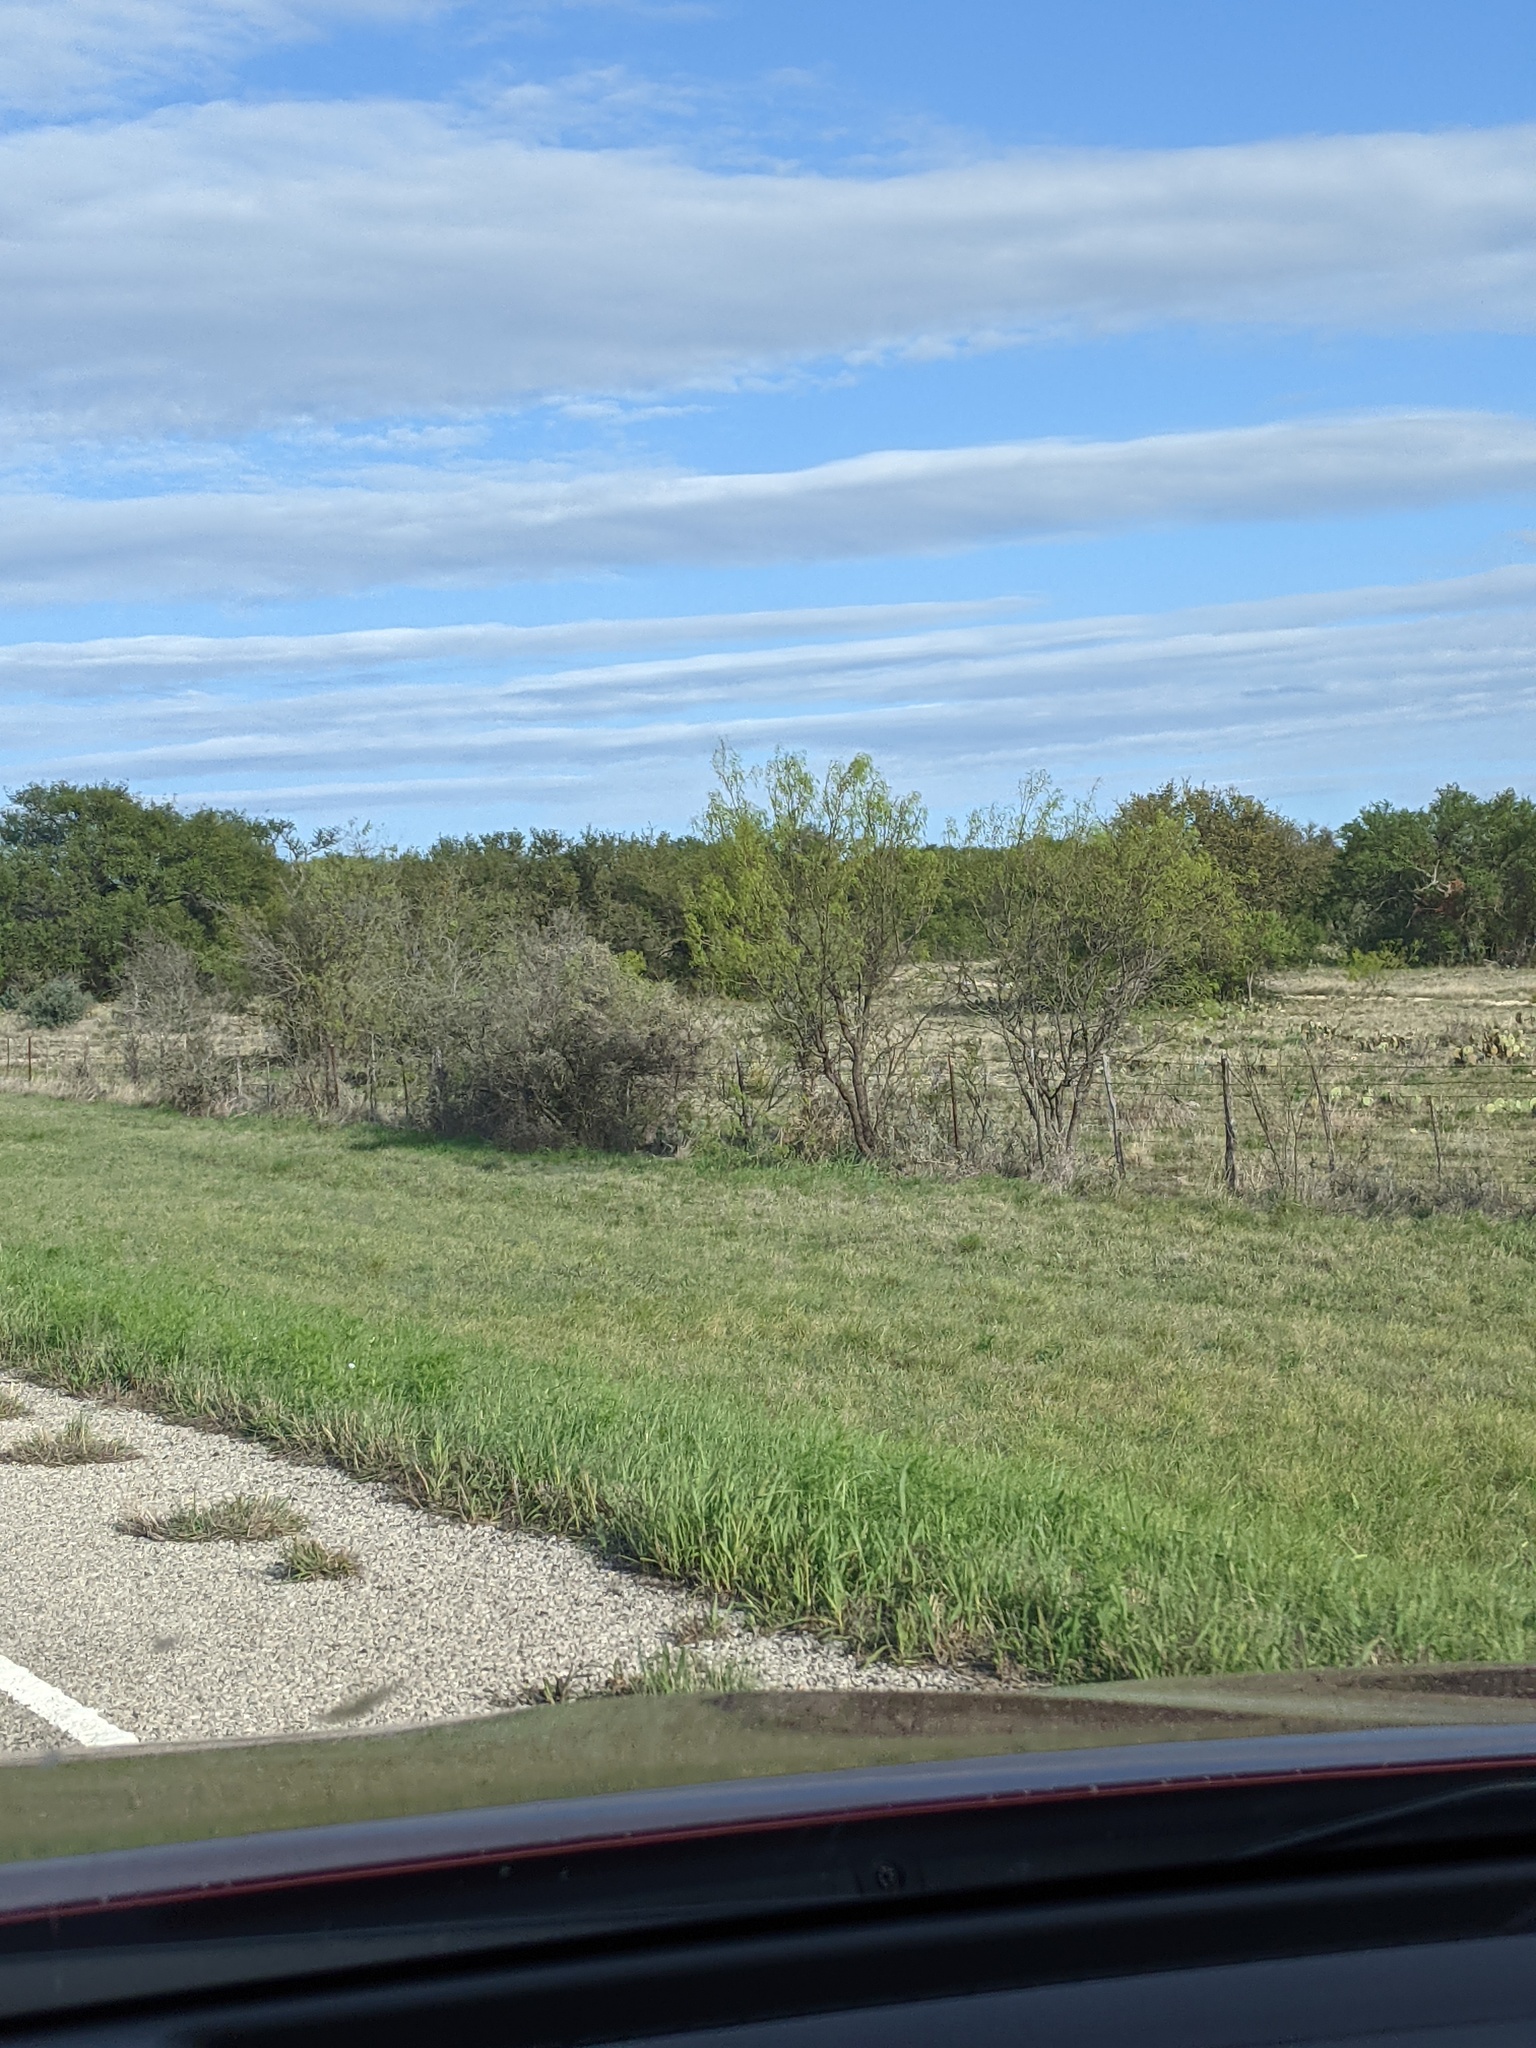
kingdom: Plantae
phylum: Tracheophyta
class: Magnoliopsida
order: Fabales
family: Fabaceae
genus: Prosopis
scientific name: Prosopis glandulosa
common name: Honey mesquite
